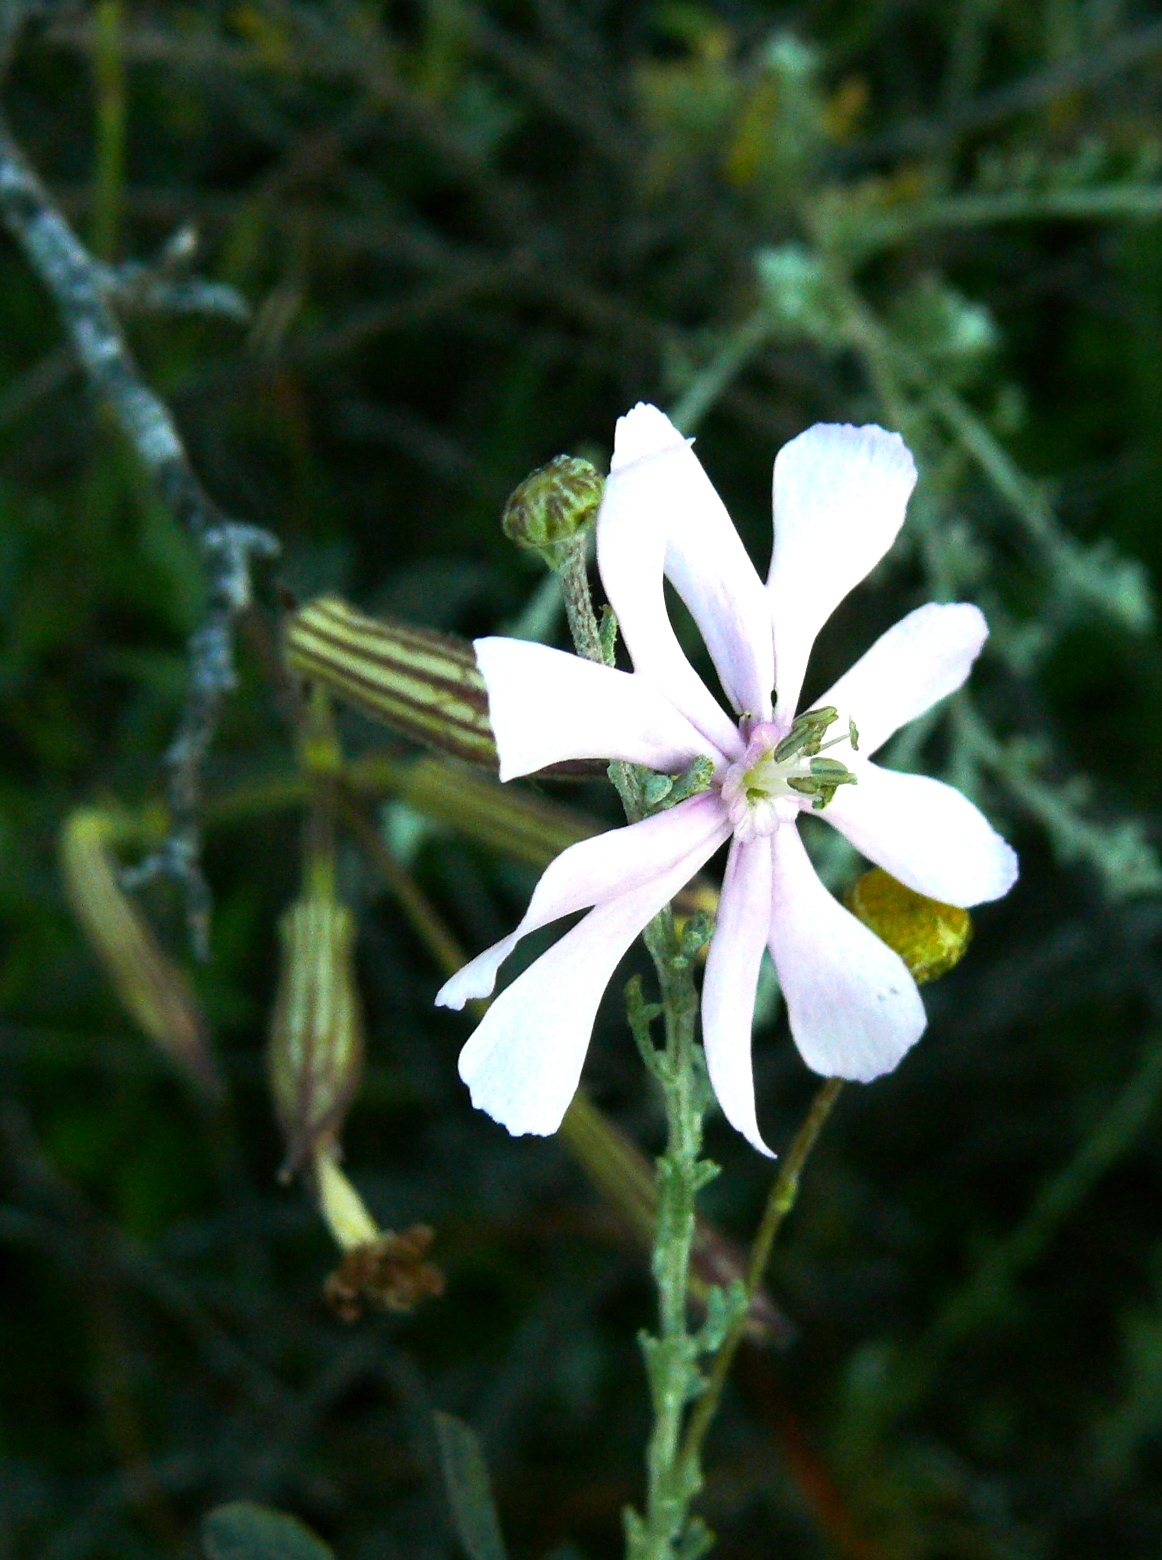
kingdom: Plantae
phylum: Tracheophyta
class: Magnoliopsida
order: Caryophyllales
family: Caryophyllaceae
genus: Silene
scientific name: Silene undulata
